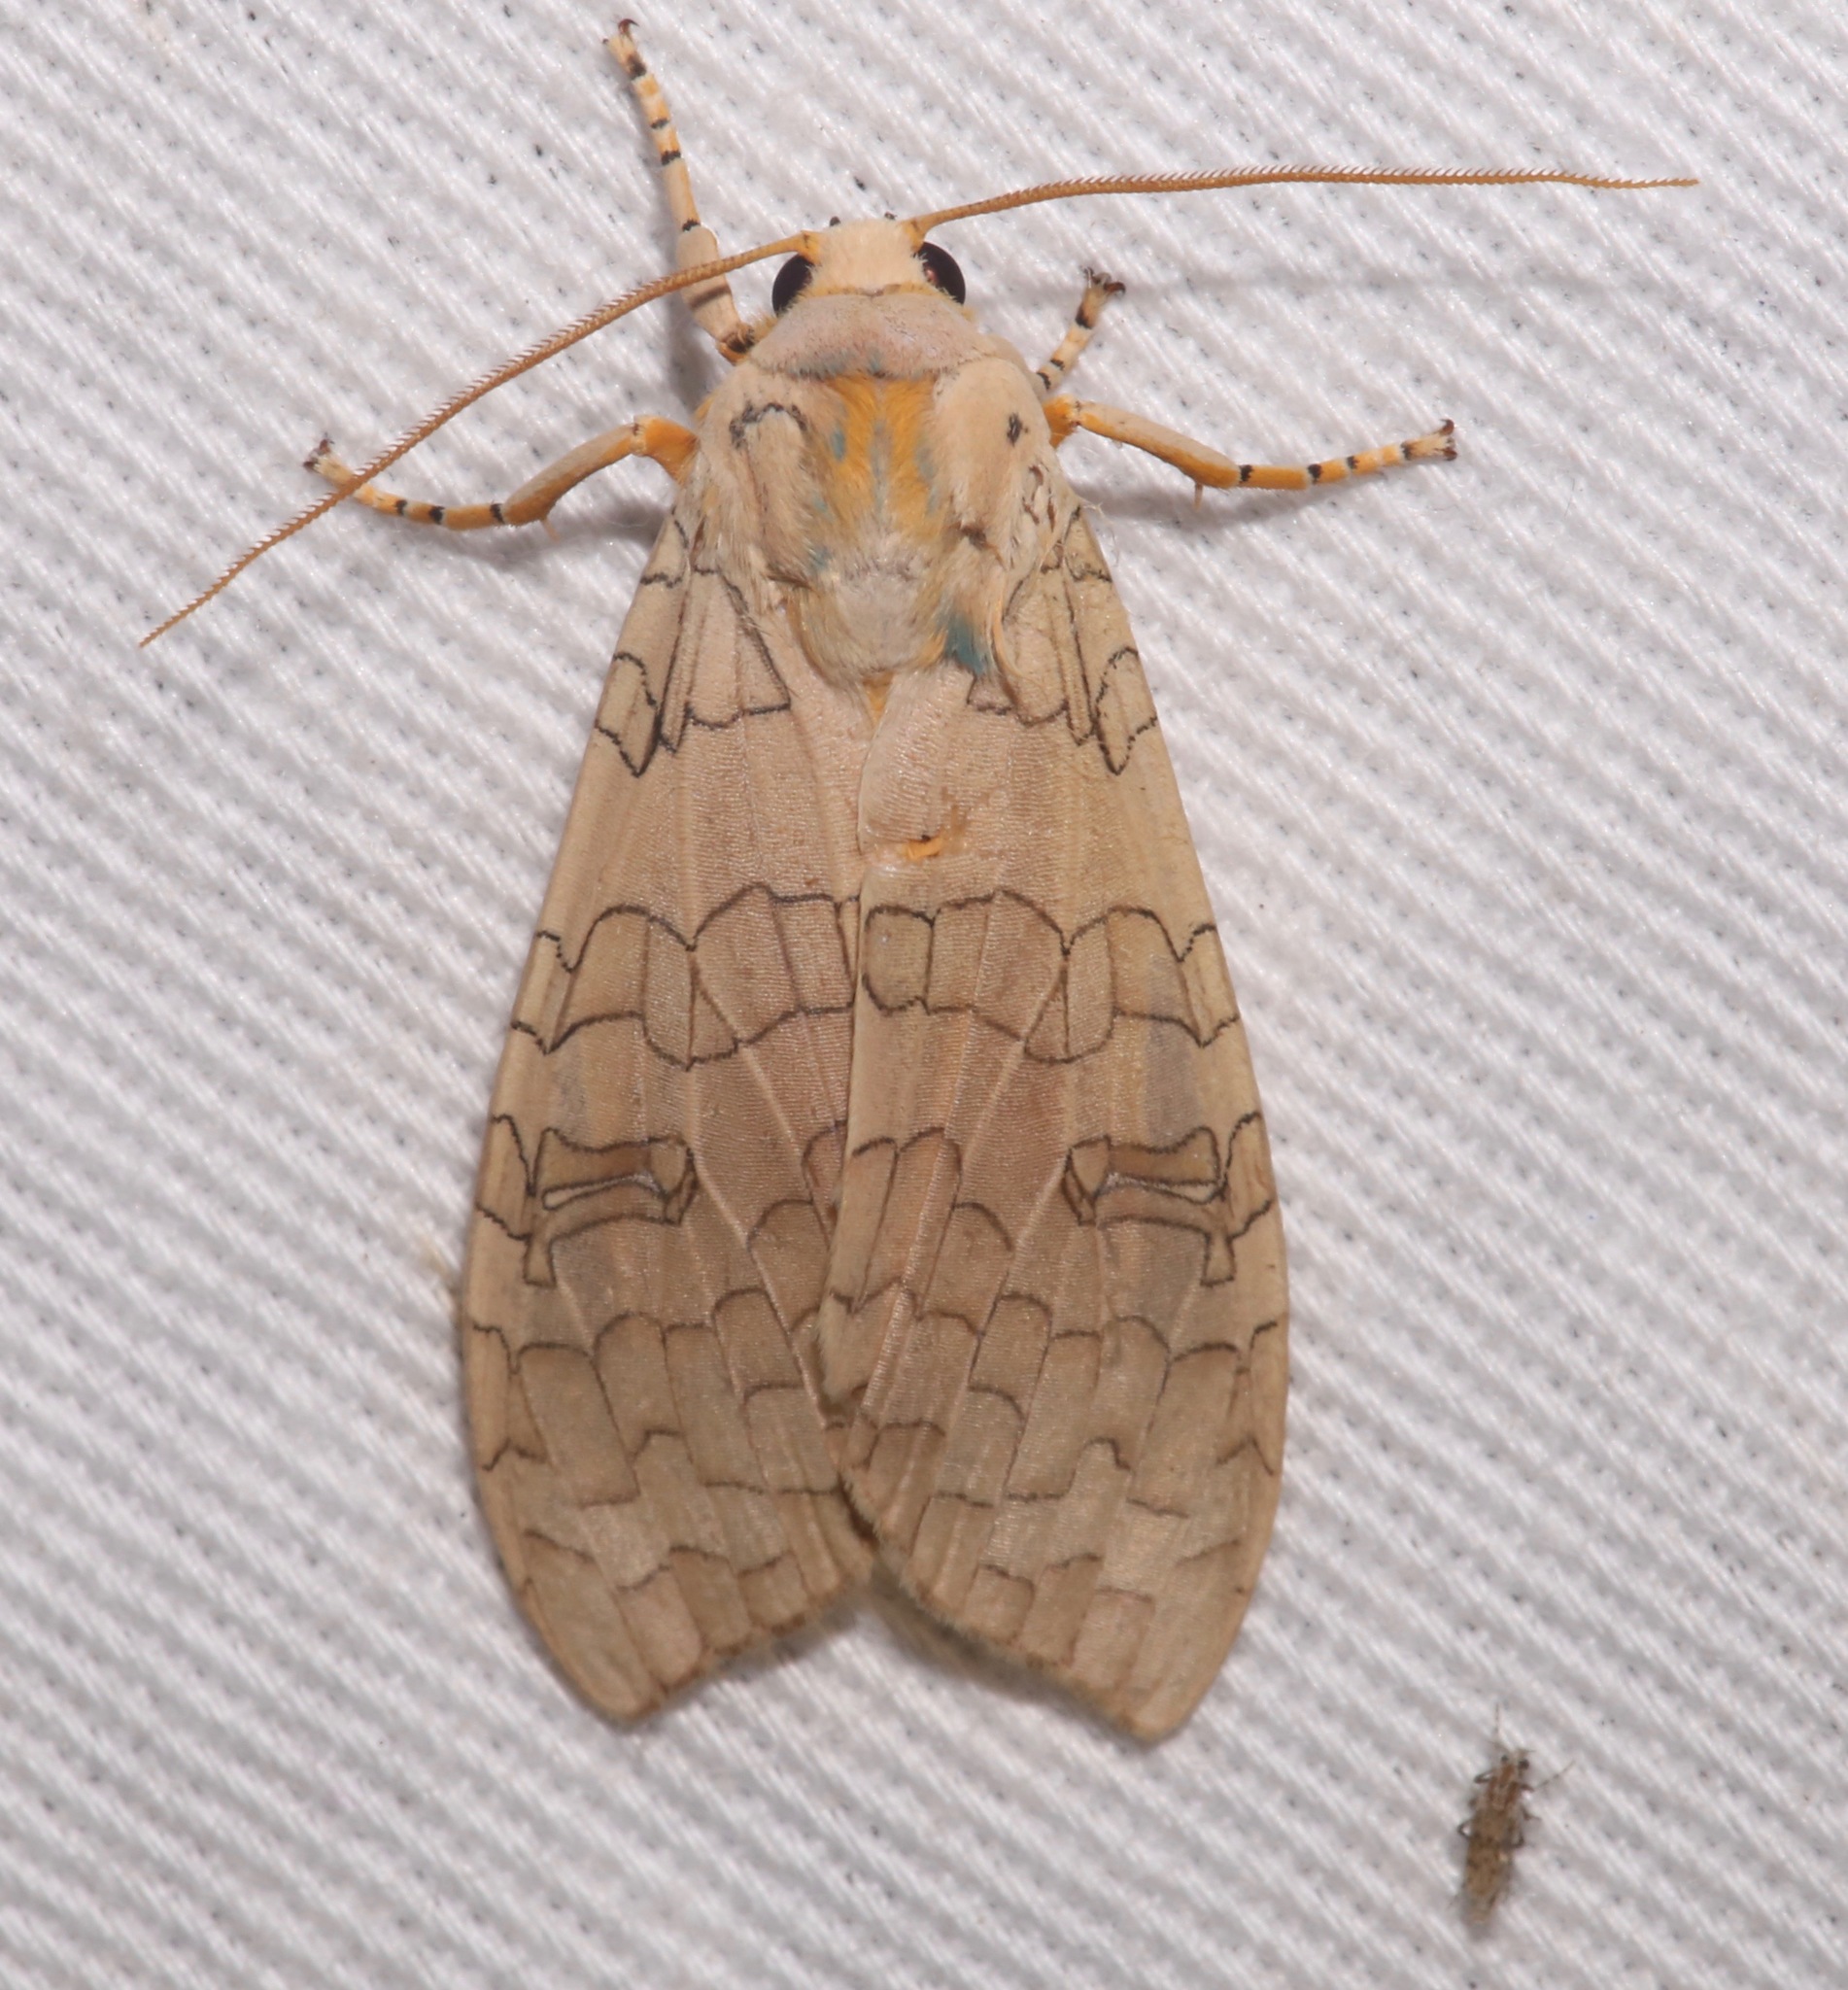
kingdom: Animalia
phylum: Arthropoda
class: Insecta
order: Lepidoptera
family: Erebidae
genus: Halysidota
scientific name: Halysidota
